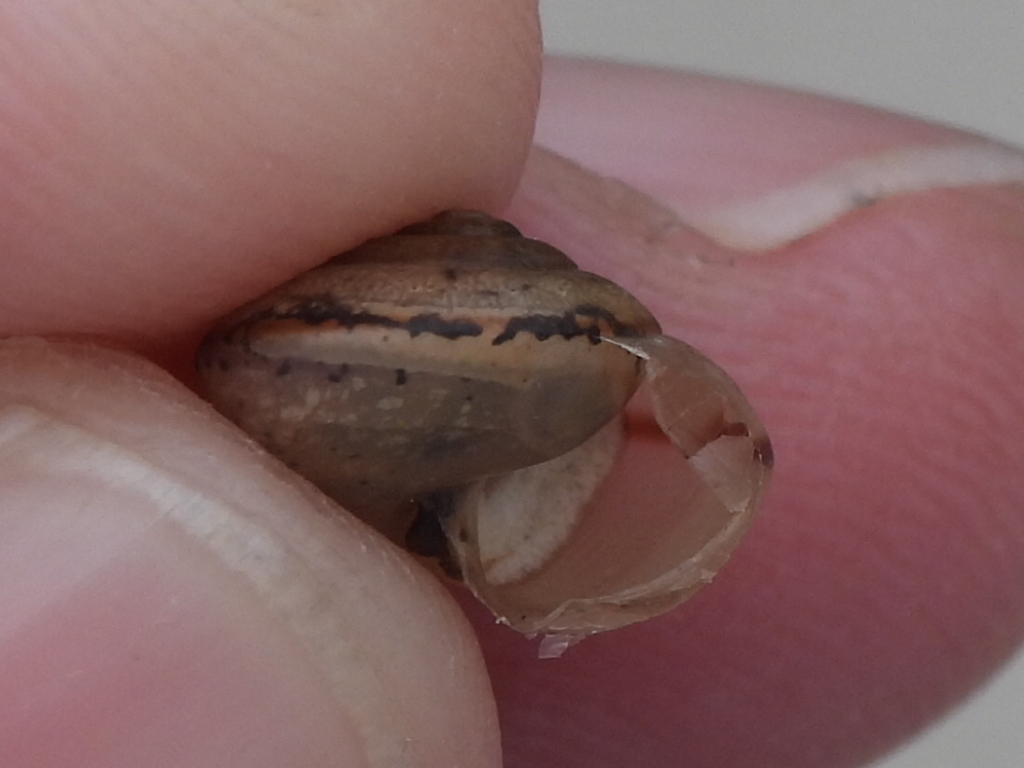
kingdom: Animalia
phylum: Mollusca
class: Gastropoda
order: Stylommatophora
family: Camaenidae
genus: Bradybaena
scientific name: Bradybaena similaris
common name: Asian trampsnail
